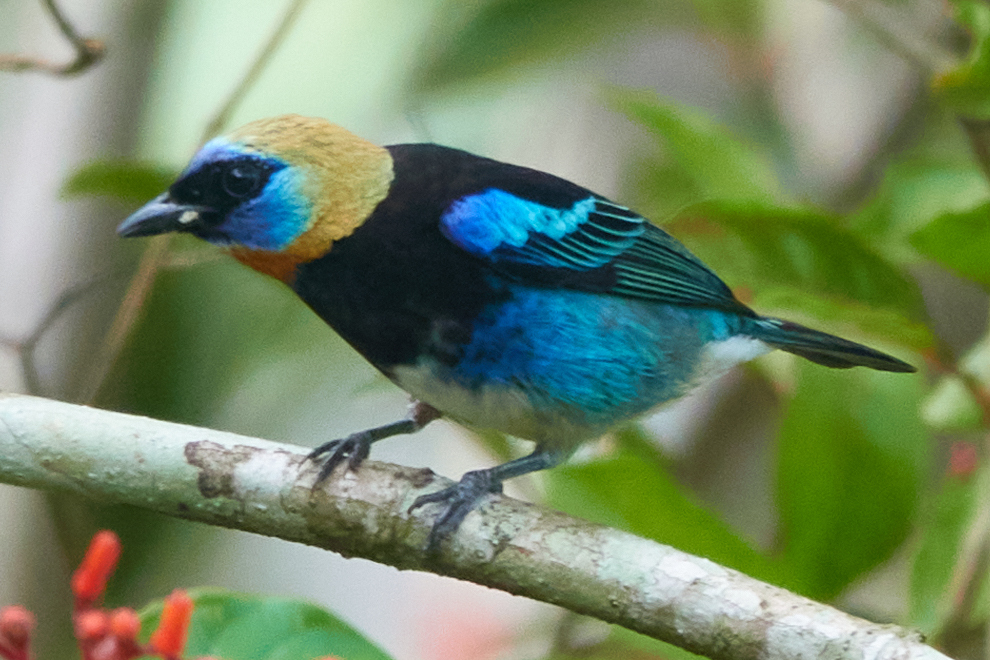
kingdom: Animalia
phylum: Chordata
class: Aves
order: Passeriformes
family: Thraupidae
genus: Stilpnia
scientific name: Stilpnia larvata
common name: Golden-hooded tanager
